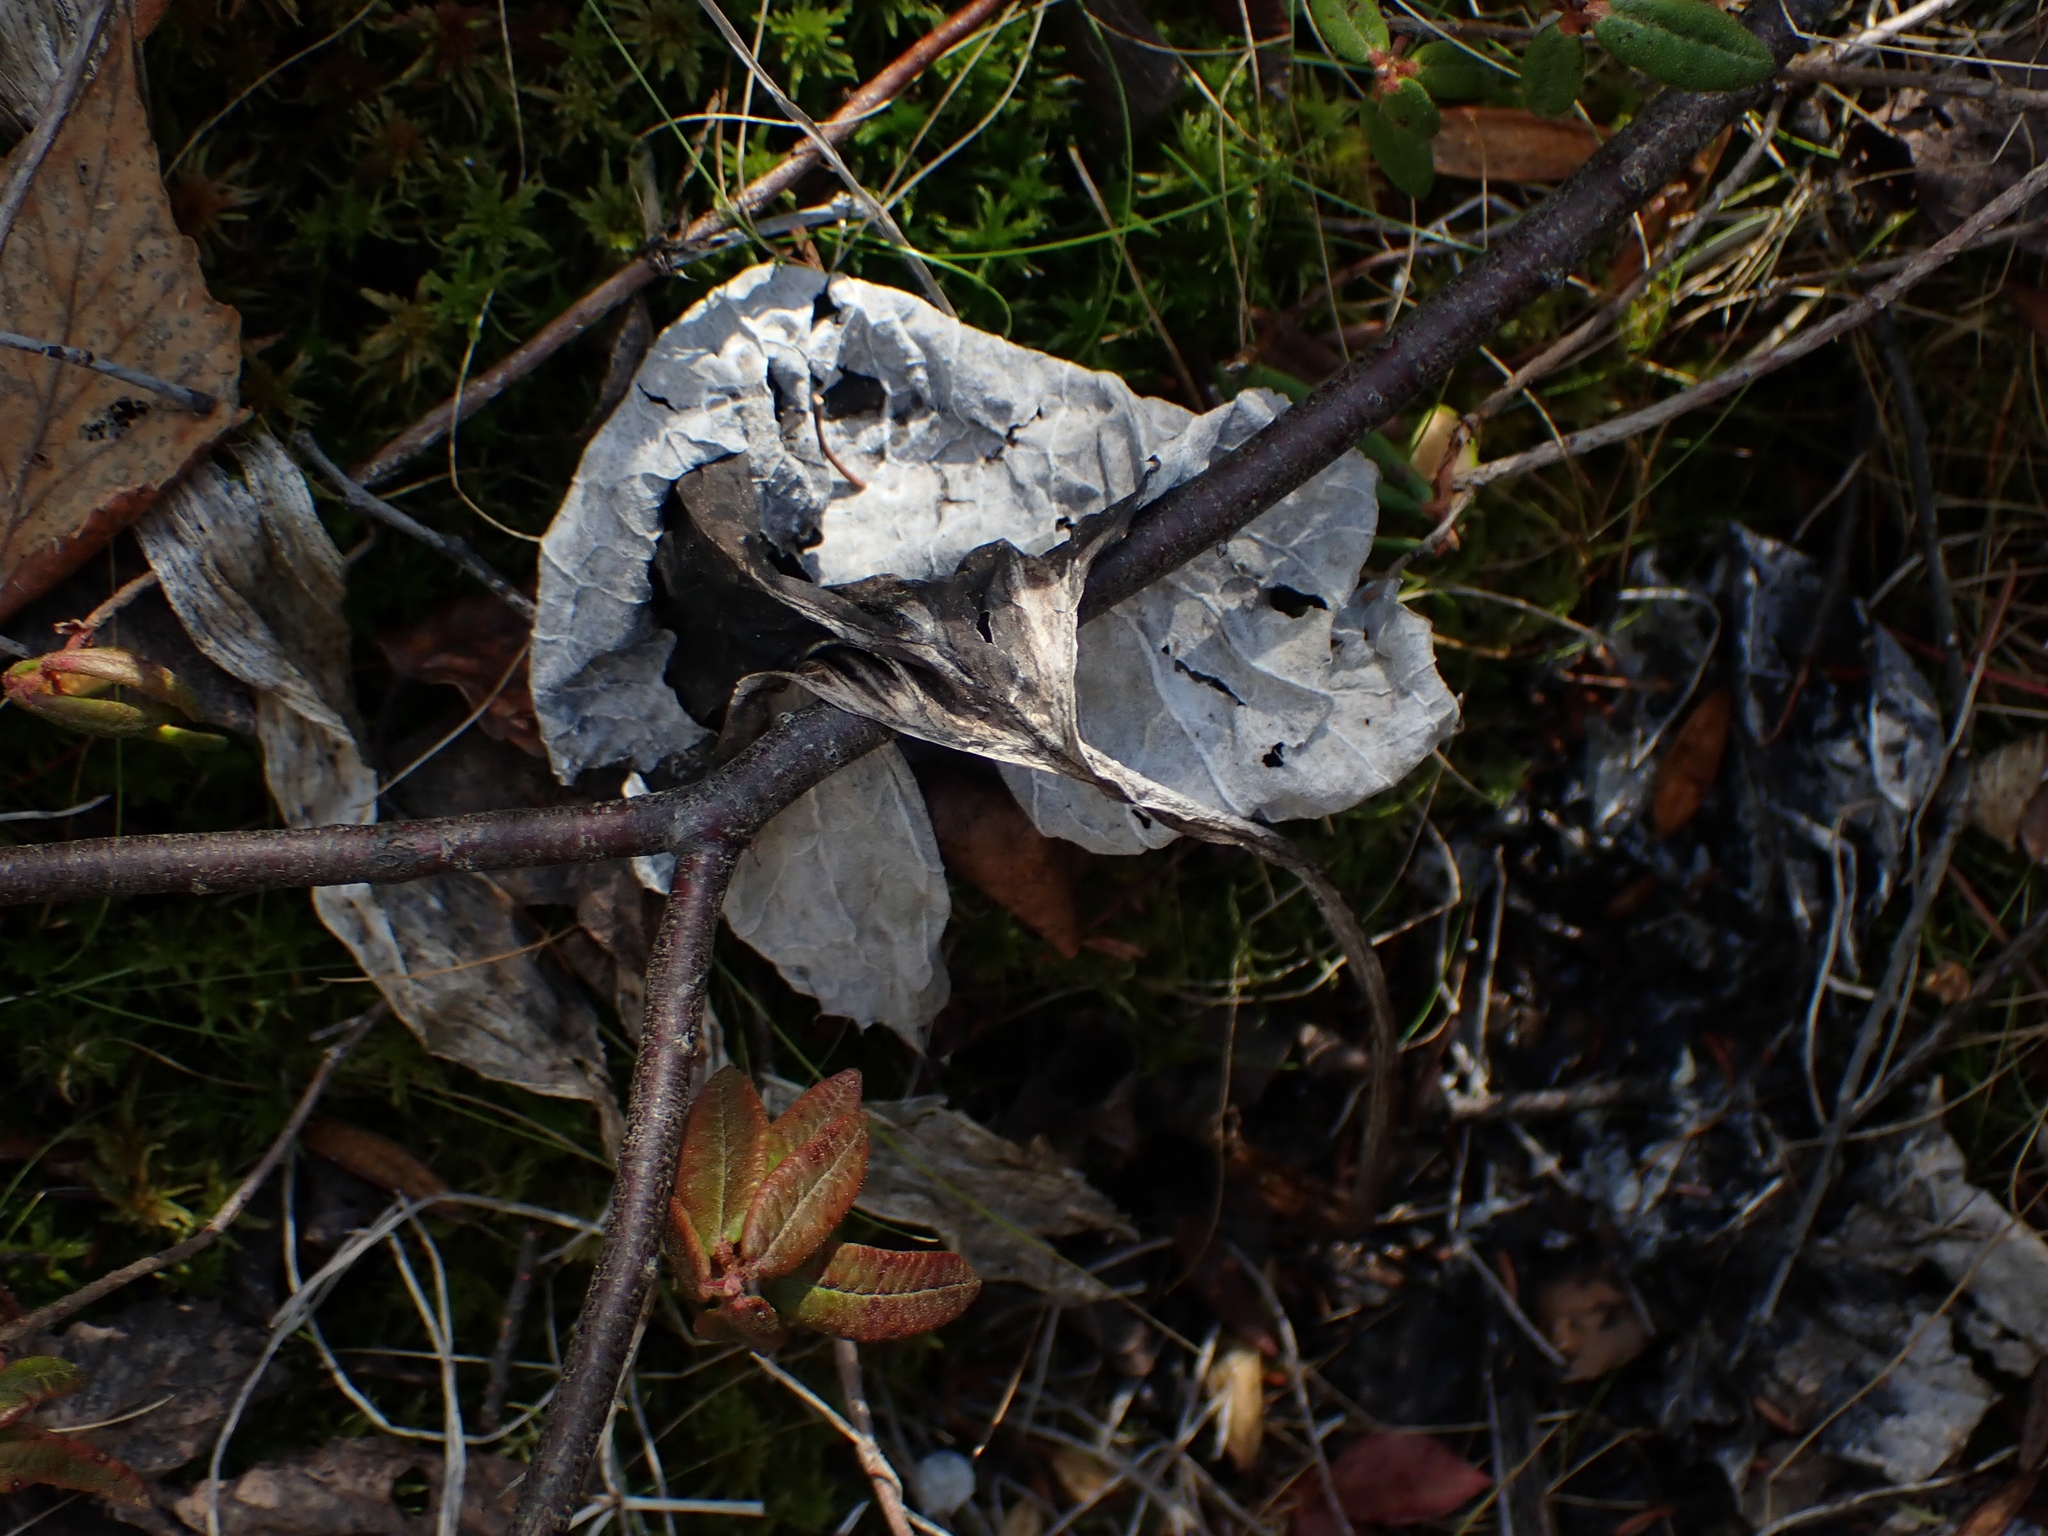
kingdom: Plantae
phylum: Tracheophyta
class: Magnoliopsida
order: Asterales
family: Asteraceae
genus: Petasites
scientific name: Petasites frigidus
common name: Arctic butterbur
